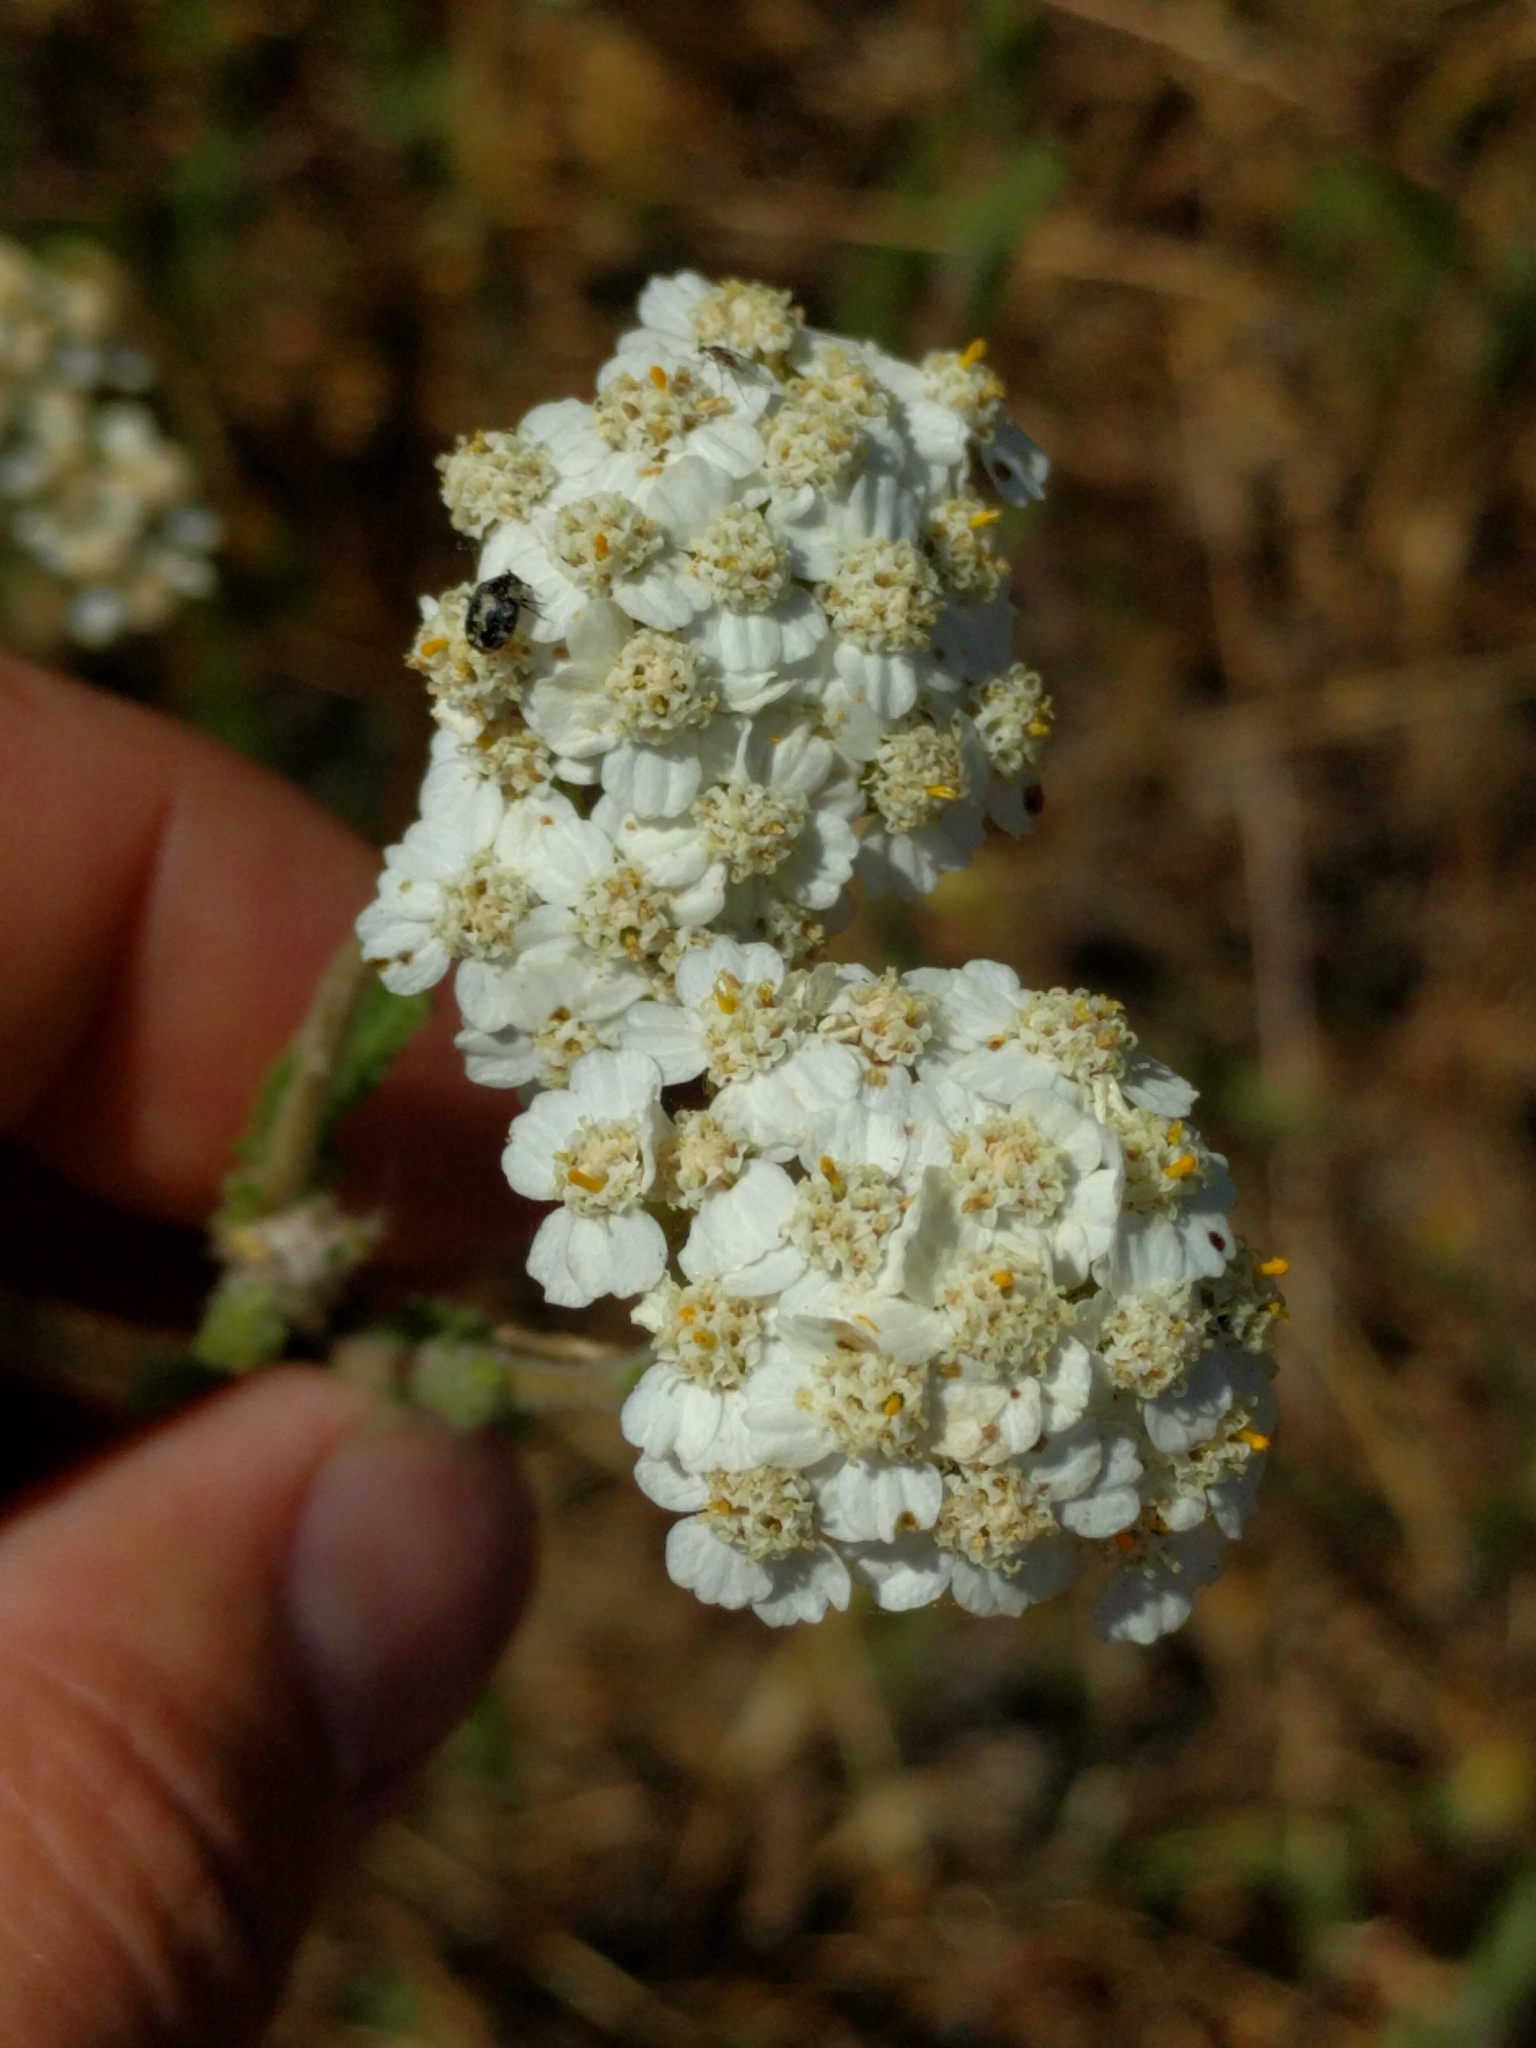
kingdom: Plantae
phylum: Tracheophyta
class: Magnoliopsida
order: Asterales
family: Asteraceae
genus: Achillea
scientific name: Achillea millefolium
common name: Yarrow
